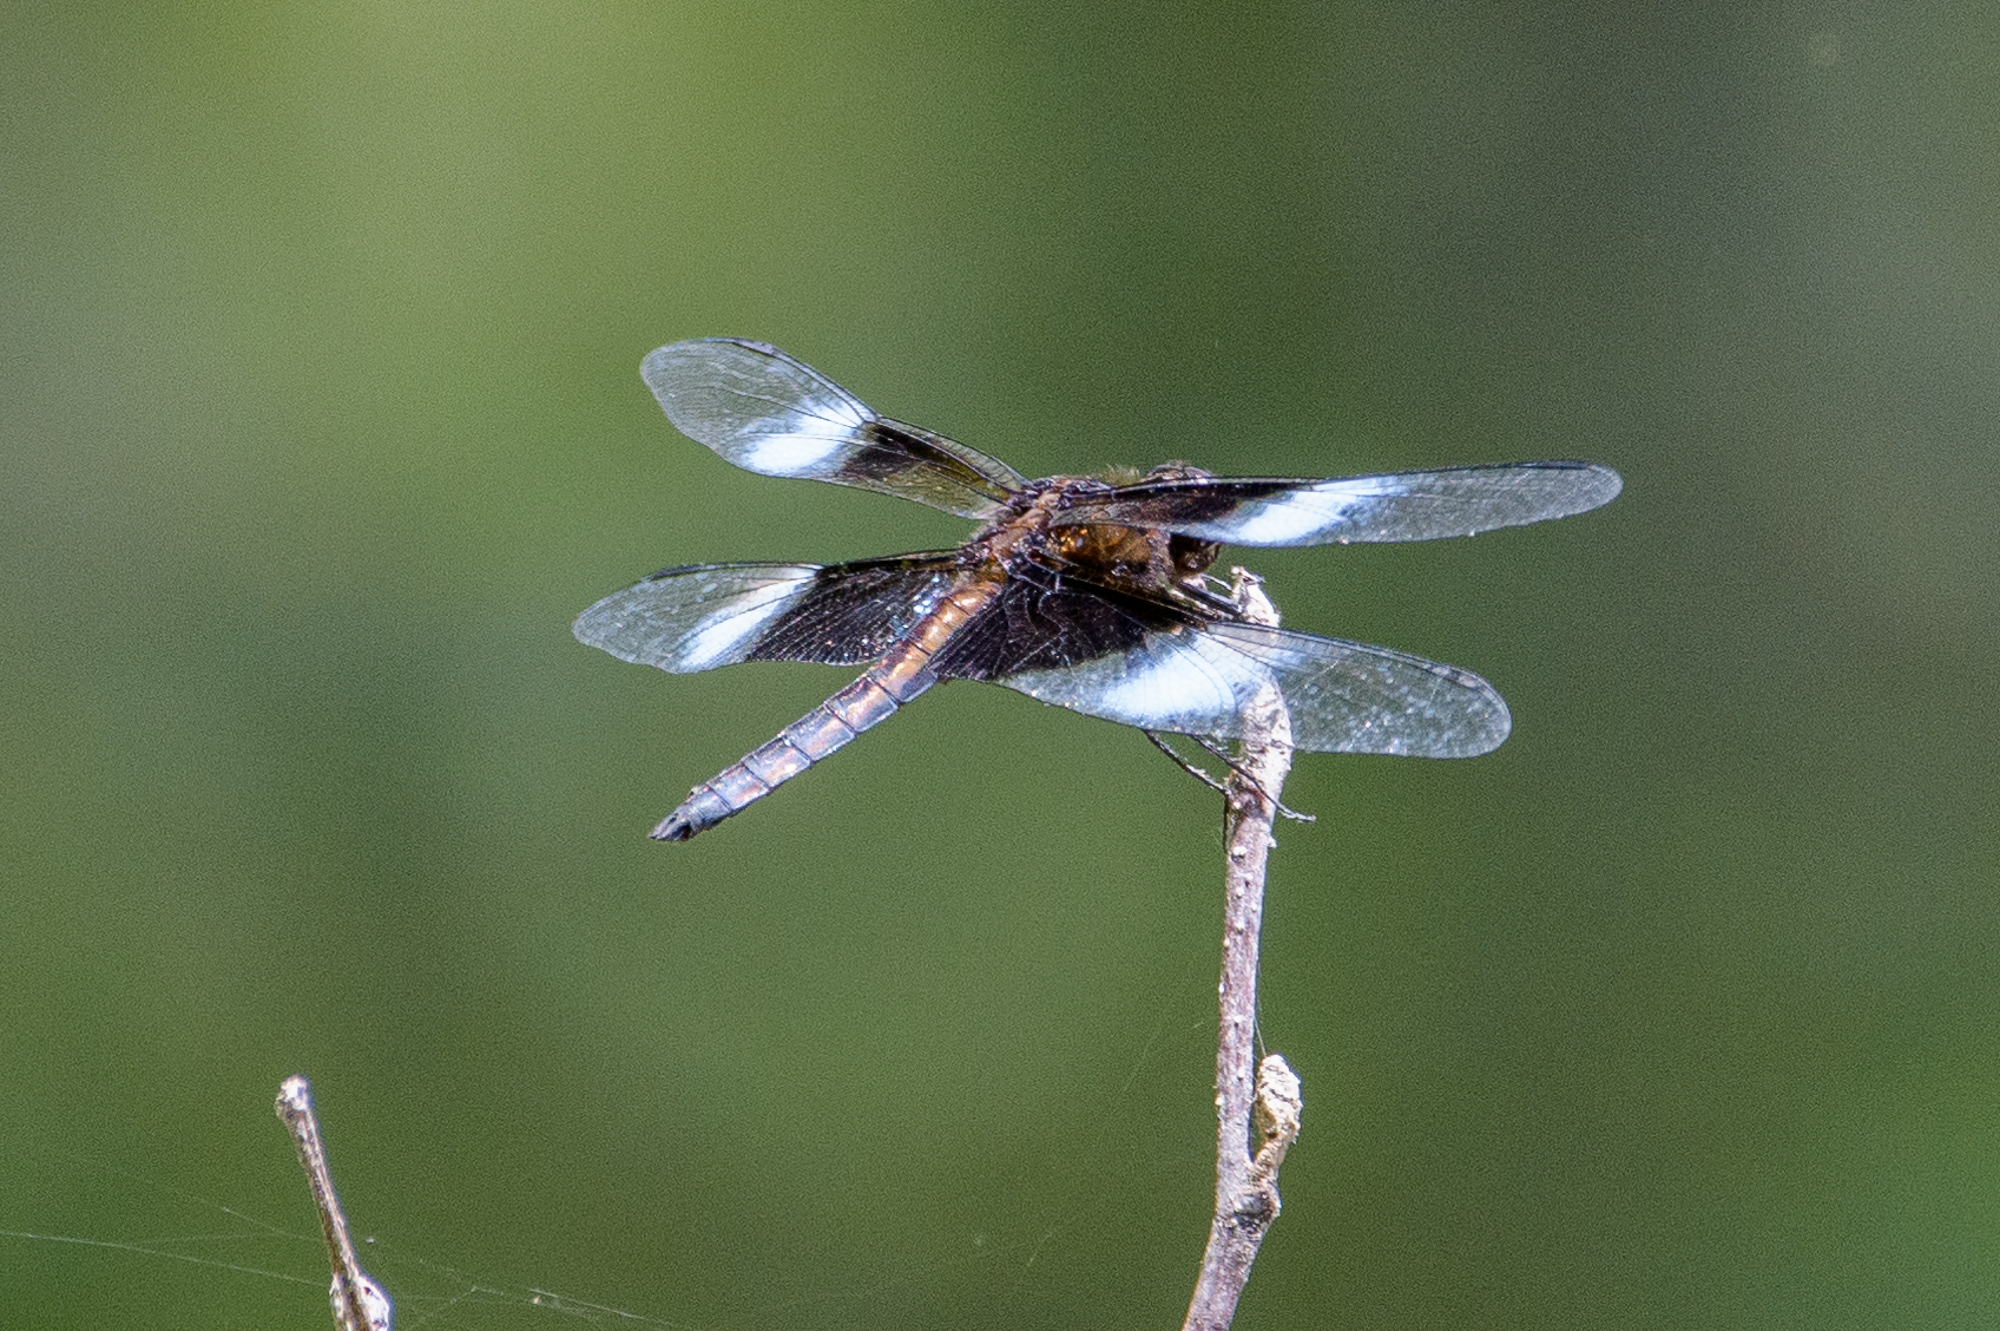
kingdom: Animalia
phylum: Arthropoda
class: Insecta
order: Odonata
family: Libellulidae
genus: Libellula
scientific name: Libellula luctuosa
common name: Widow skimmer
